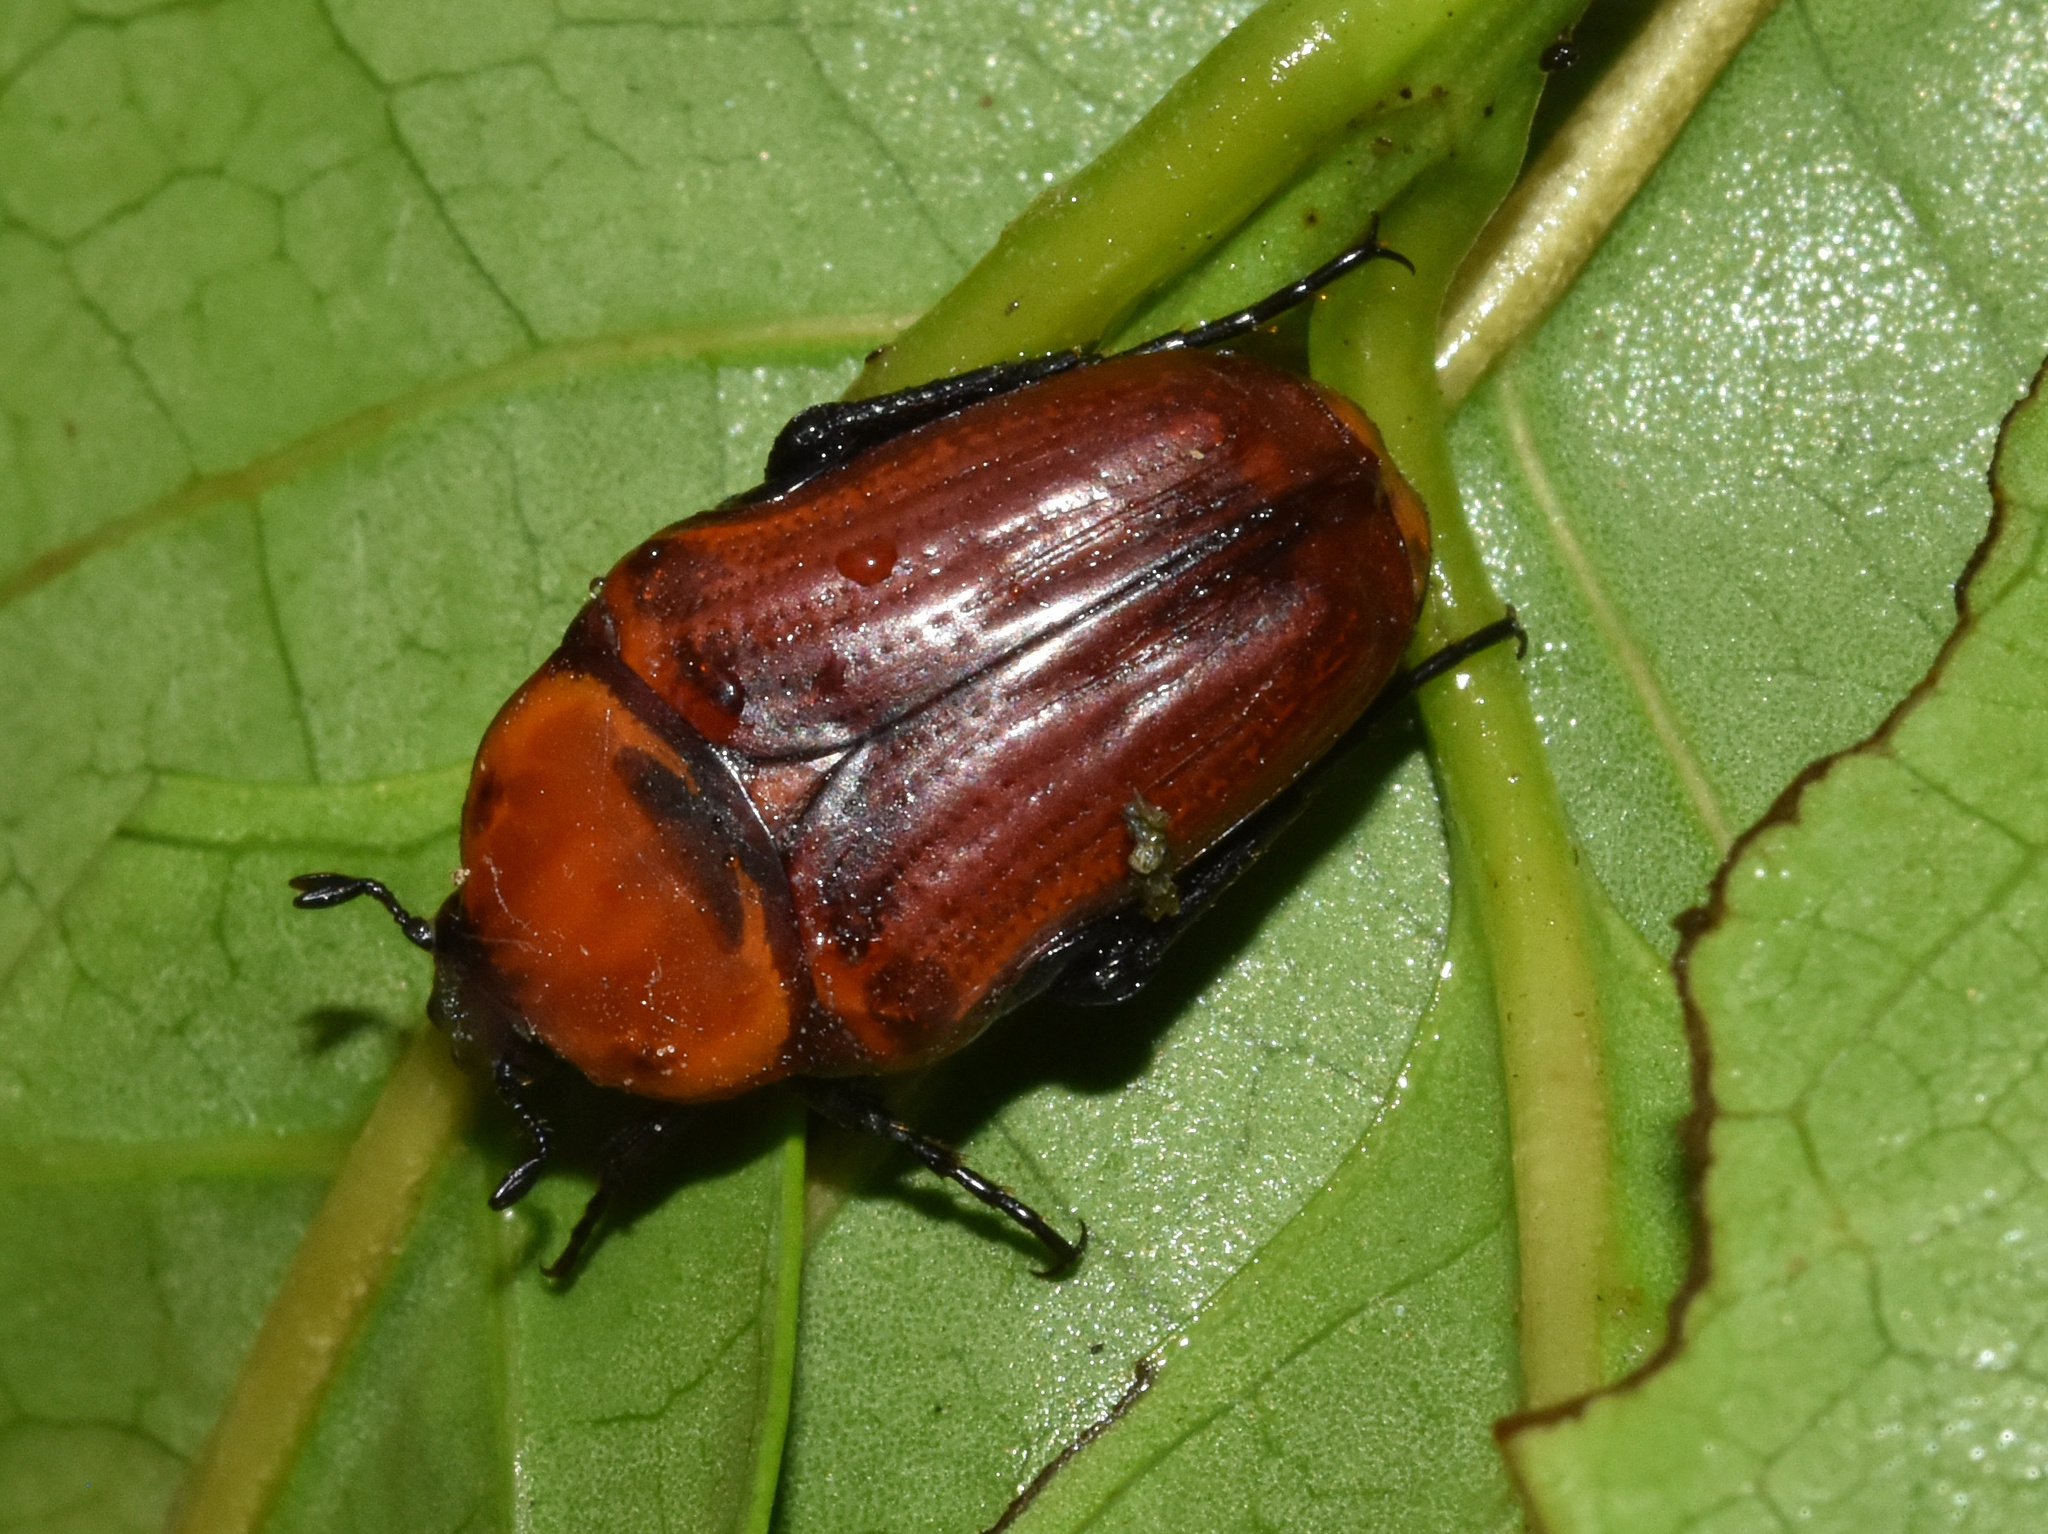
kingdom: Animalia
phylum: Arthropoda
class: Insecta
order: Coleoptera
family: Scarabaeidae
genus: Leucocelis
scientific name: Leucocelis rubra
